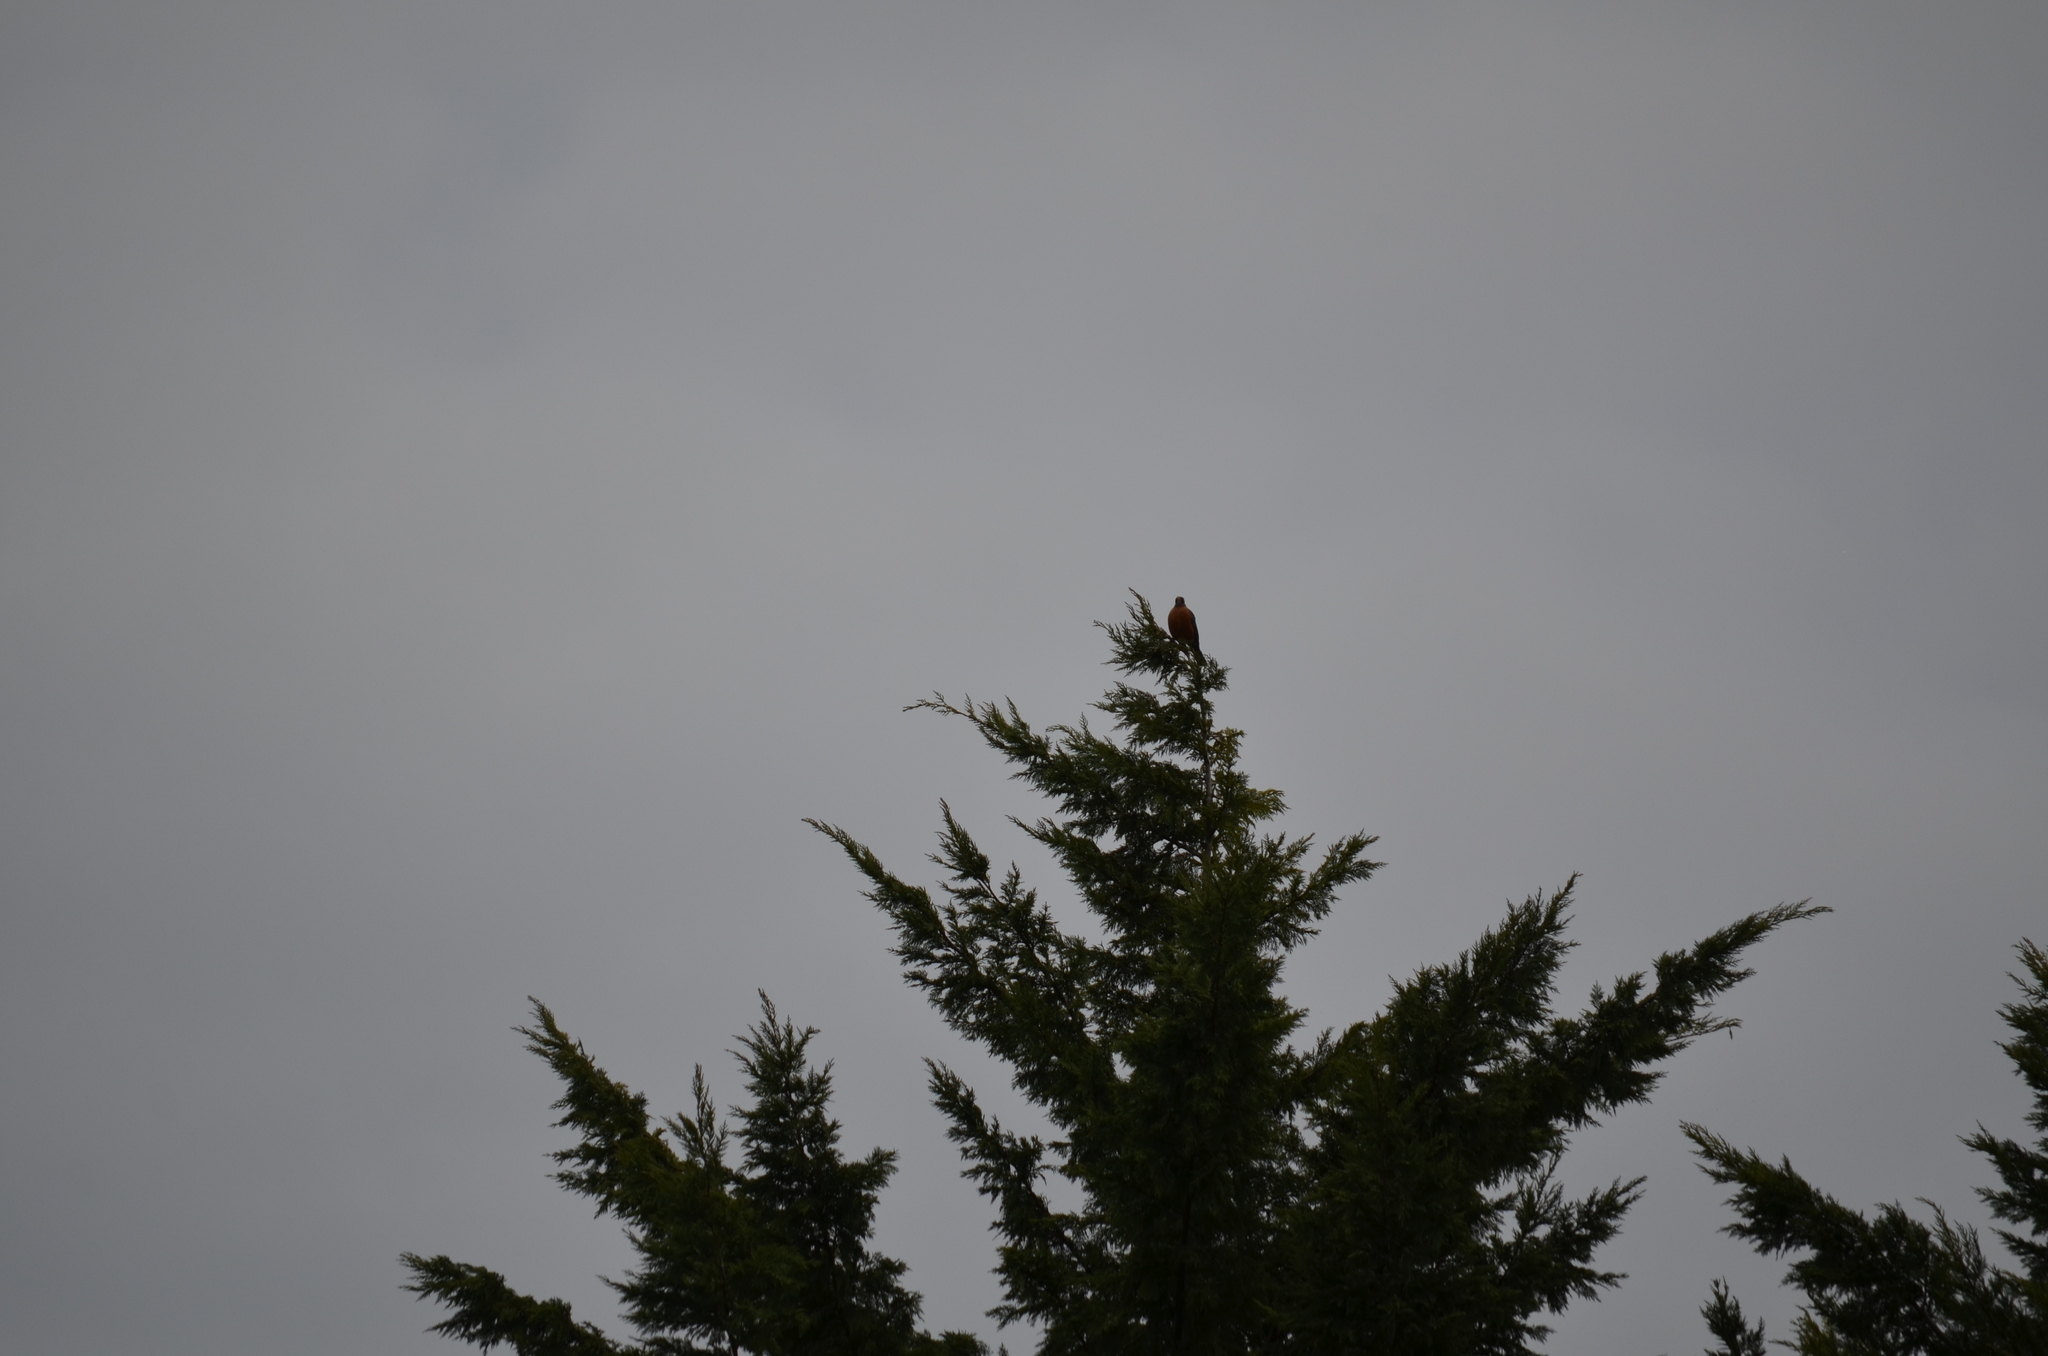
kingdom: Animalia
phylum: Chordata
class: Aves
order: Passeriformes
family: Turdidae
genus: Turdus
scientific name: Turdus migratorius
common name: American robin
